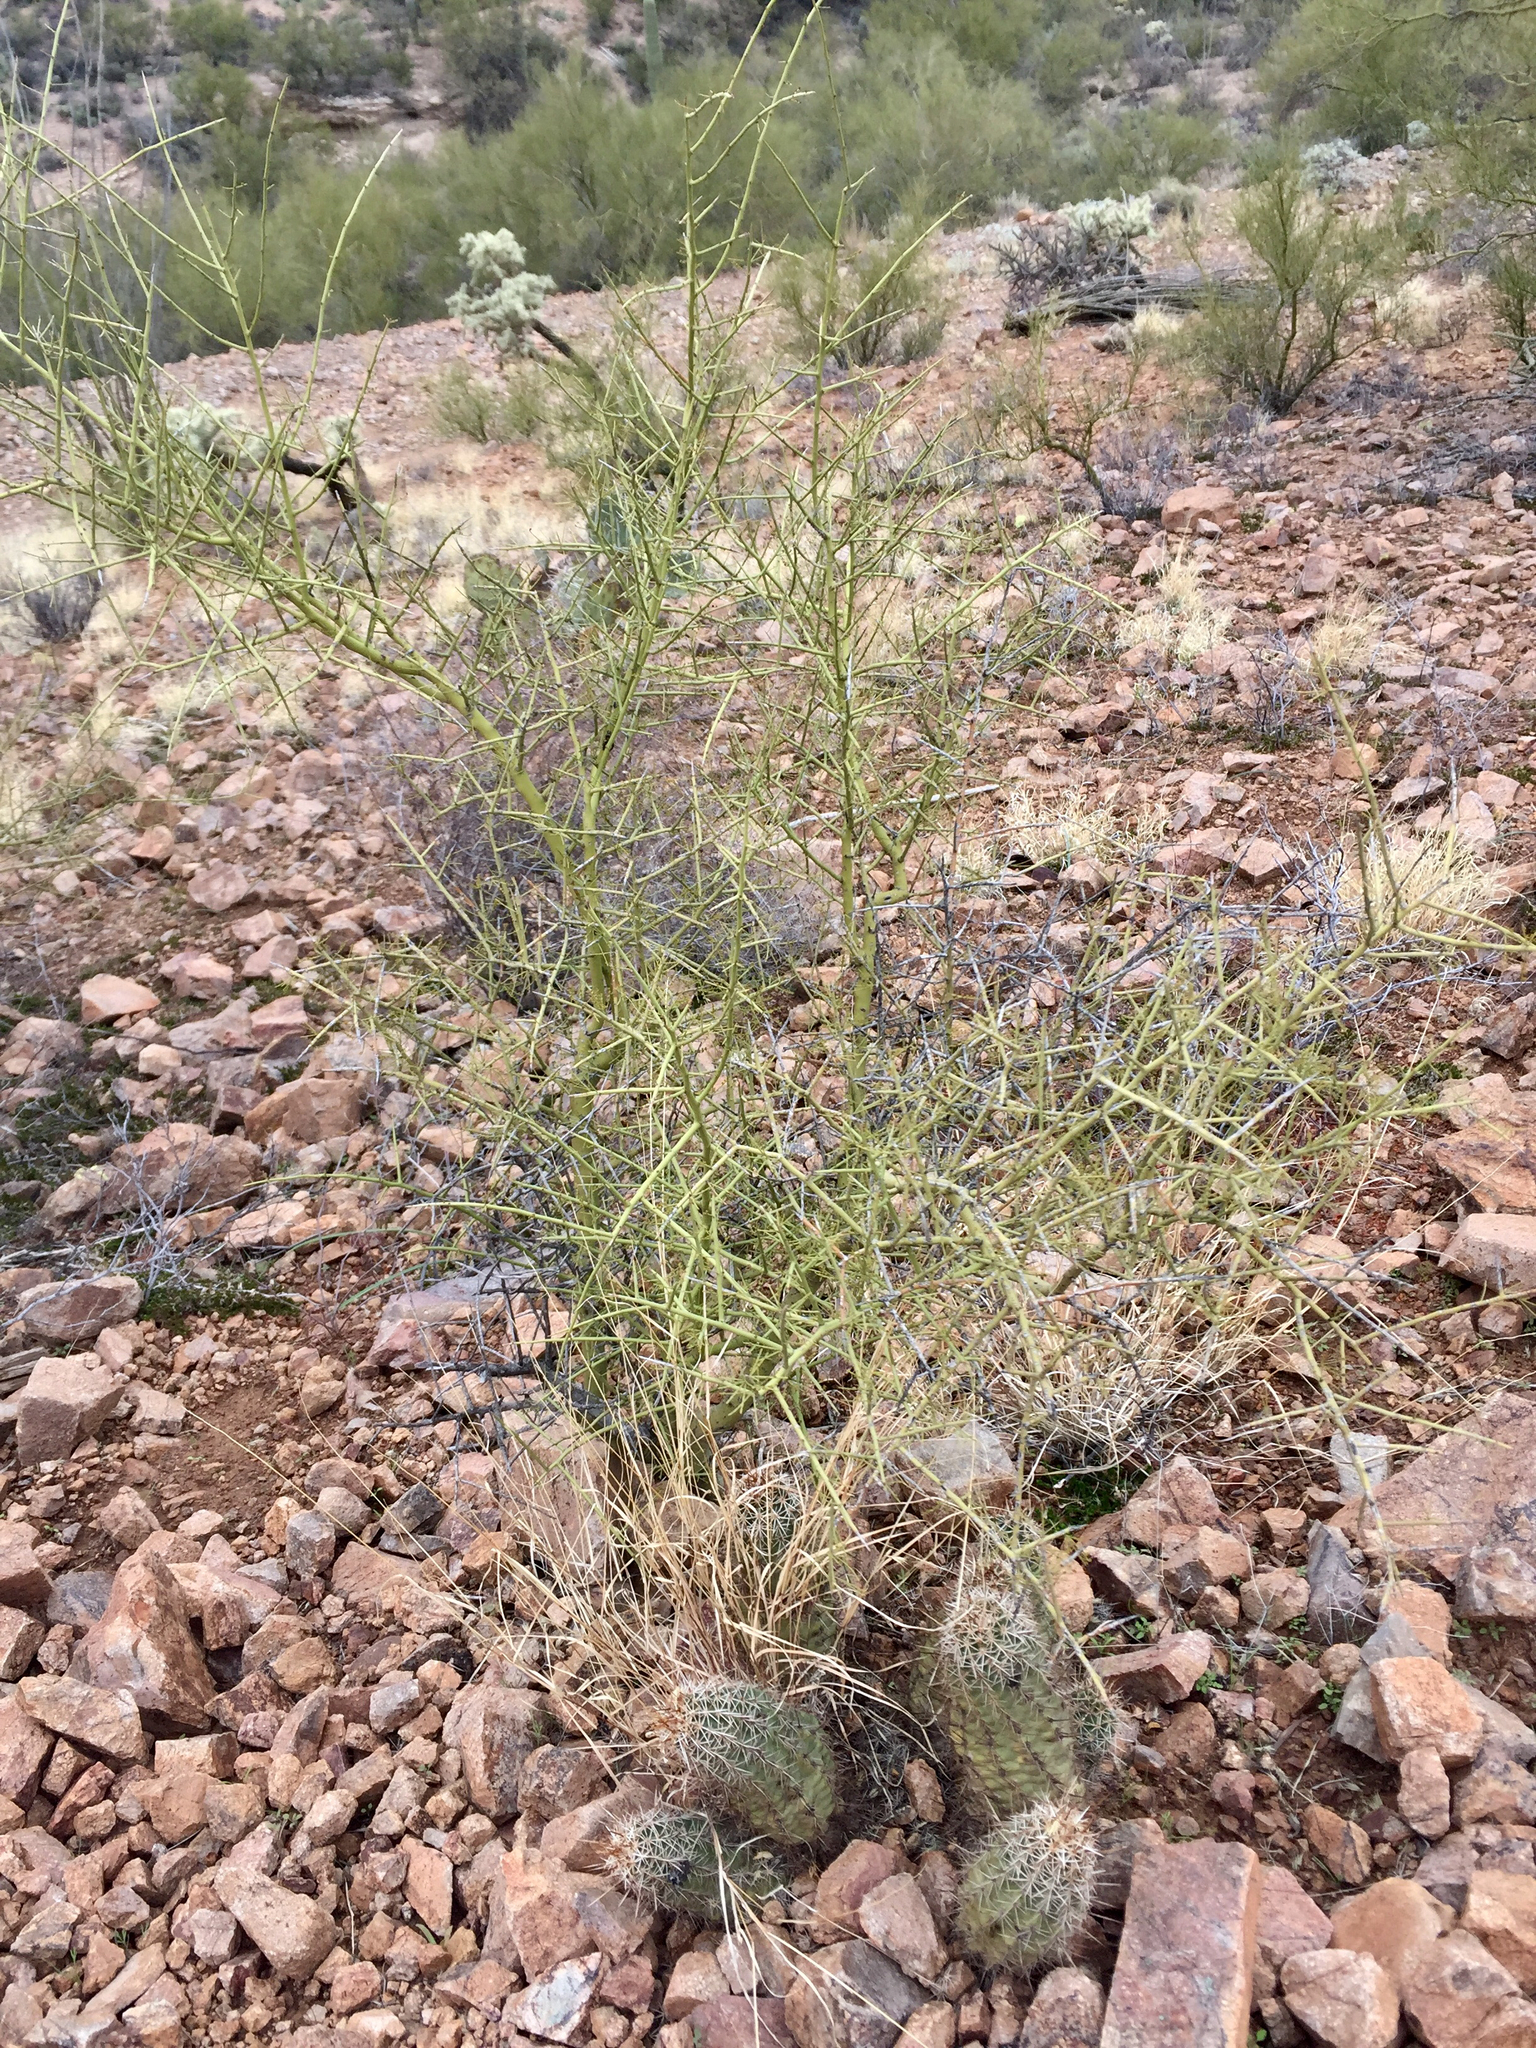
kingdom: Plantae
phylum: Tracheophyta
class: Magnoliopsida
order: Fabales
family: Fabaceae
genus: Parkinsonia
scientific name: Parkinsonia microphylla
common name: Yellow paloverde
